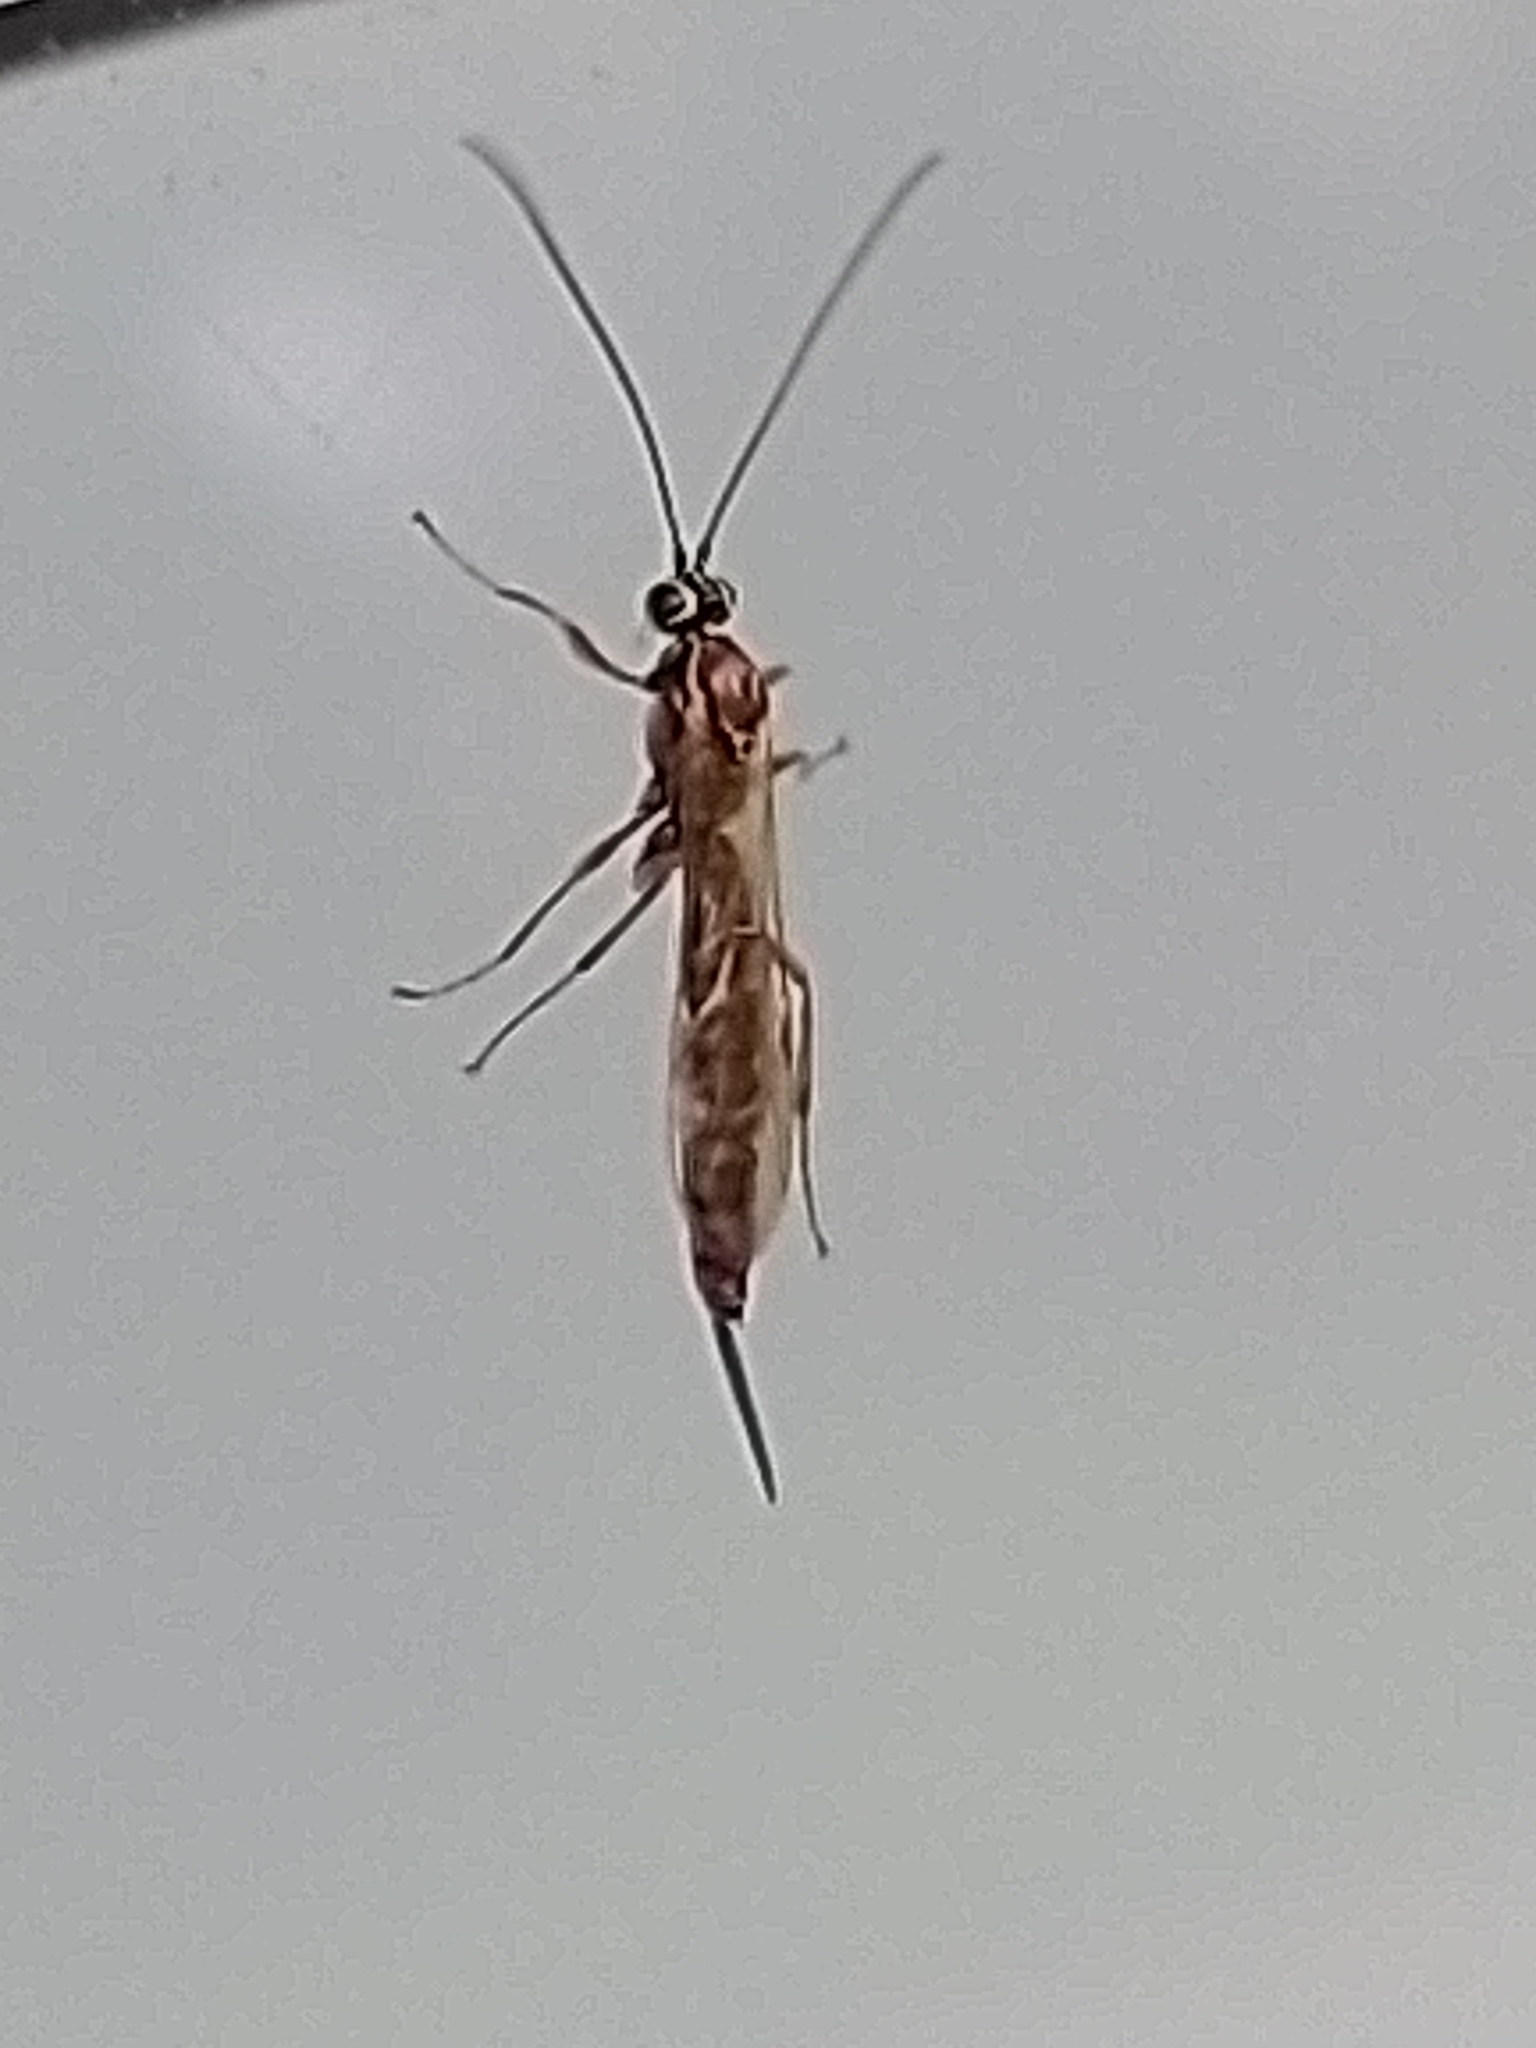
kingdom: Animalia
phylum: Arthropoda
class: Insecta
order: Hymenoptera
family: Ichneumonidae
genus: Tromatobia
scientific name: Tromatobia lineatoria
